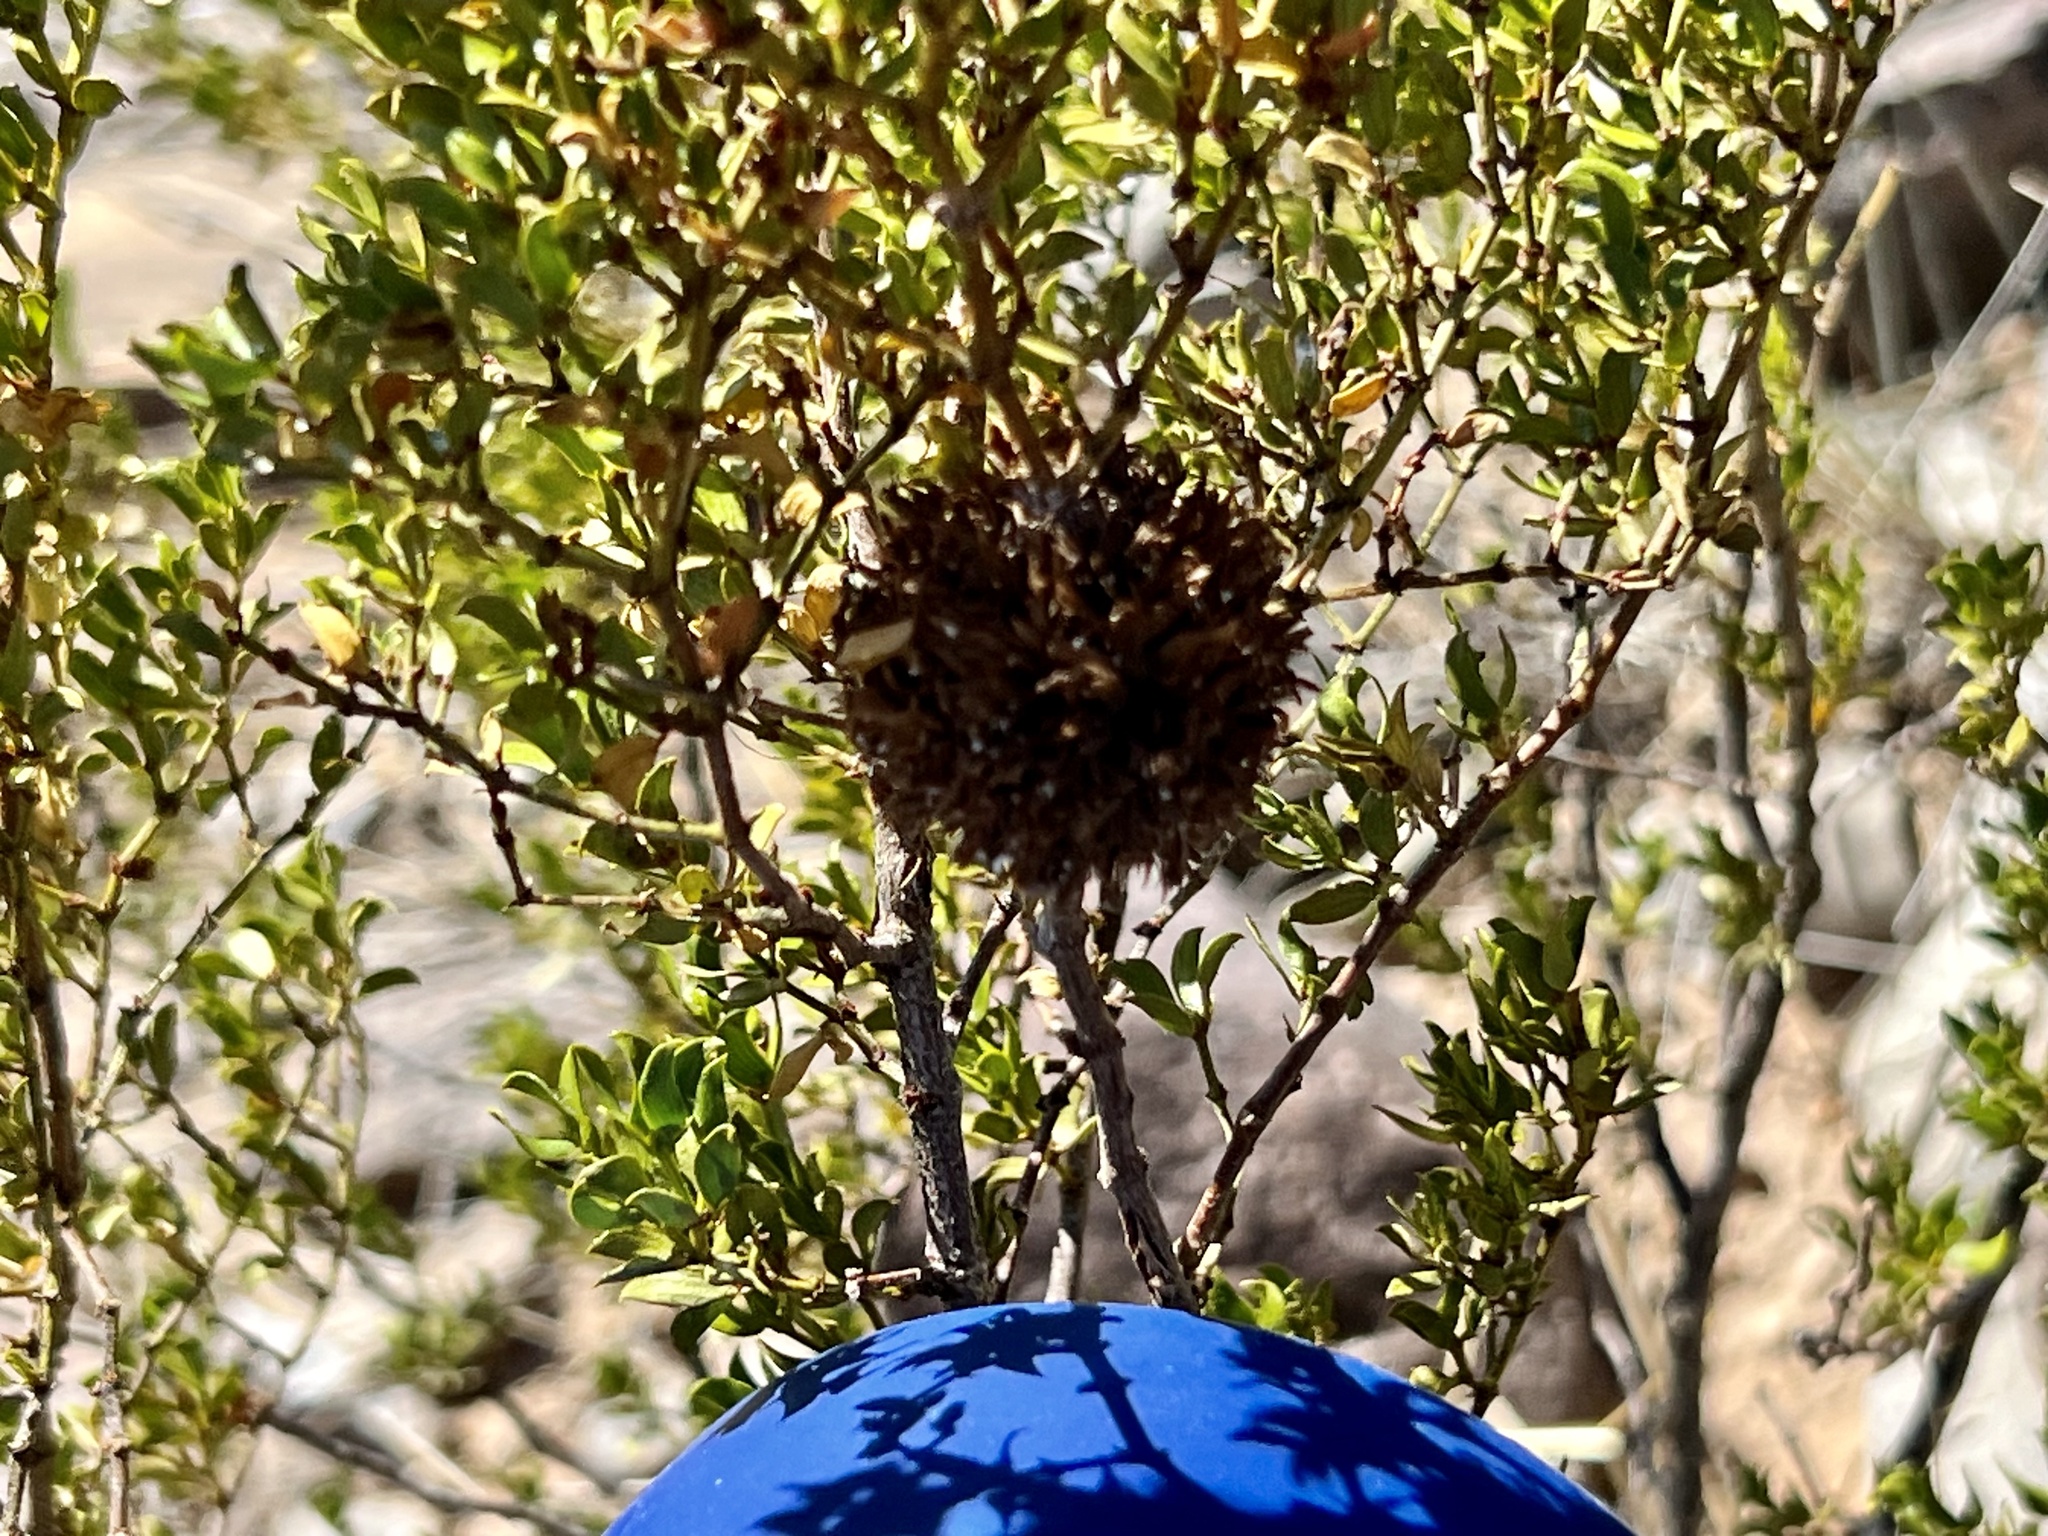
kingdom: Animalia
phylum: Arthropoda
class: Insecta
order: Diptera
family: Cecidomyiidae
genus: Asphondylia
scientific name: Asphondylia auripila
